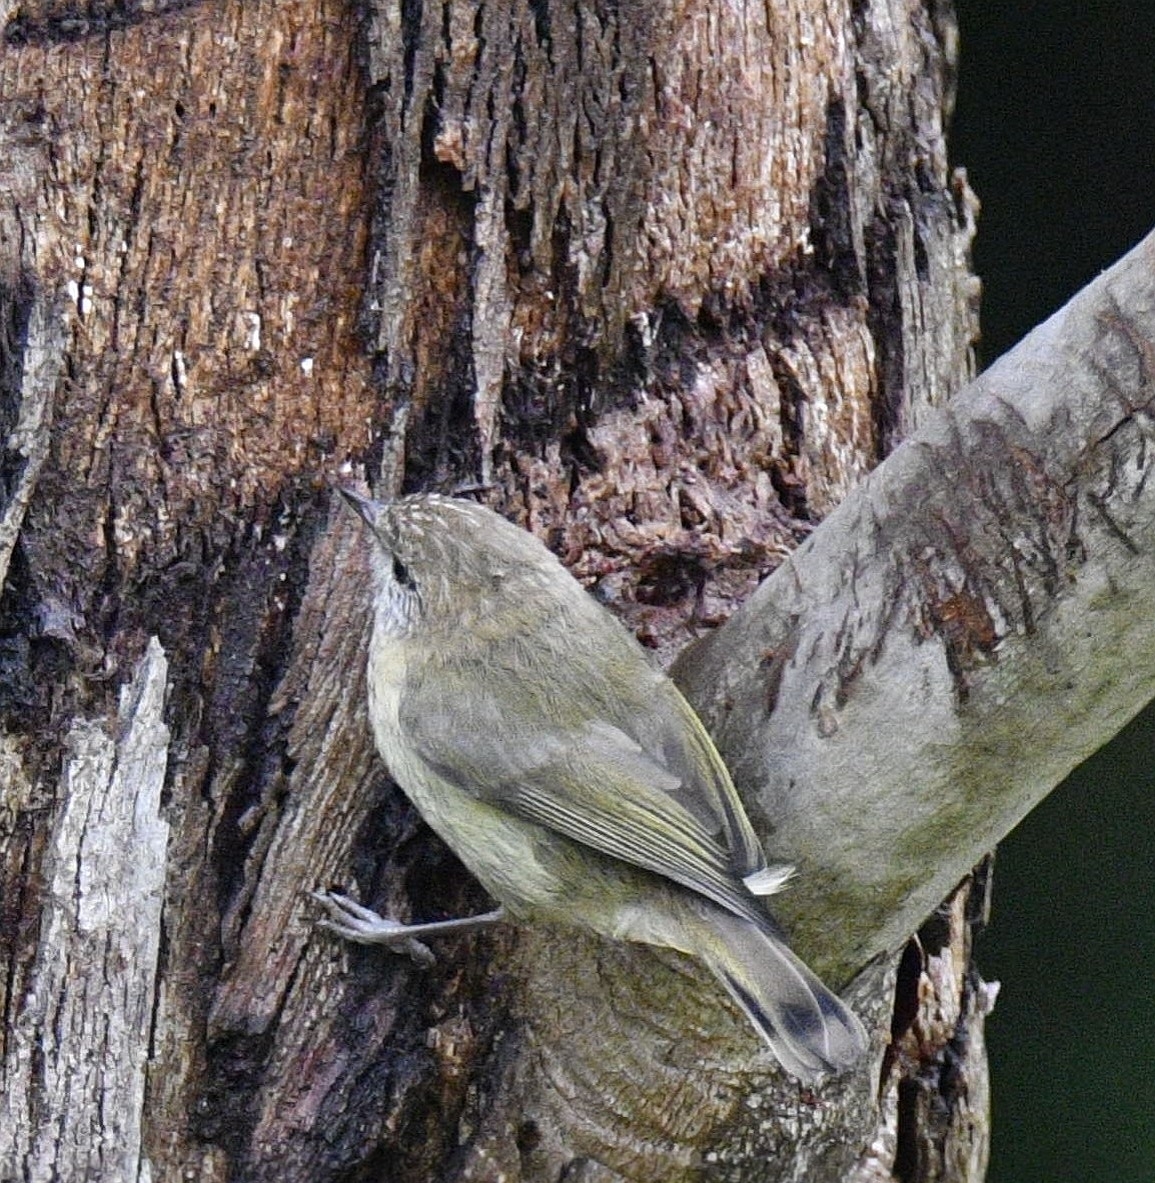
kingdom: Animalia
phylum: Chordata
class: Aves
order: Passeriformes
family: Acanthizidae
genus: Acanthiza
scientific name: Acanthiza lineata
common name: Striated thornbill
